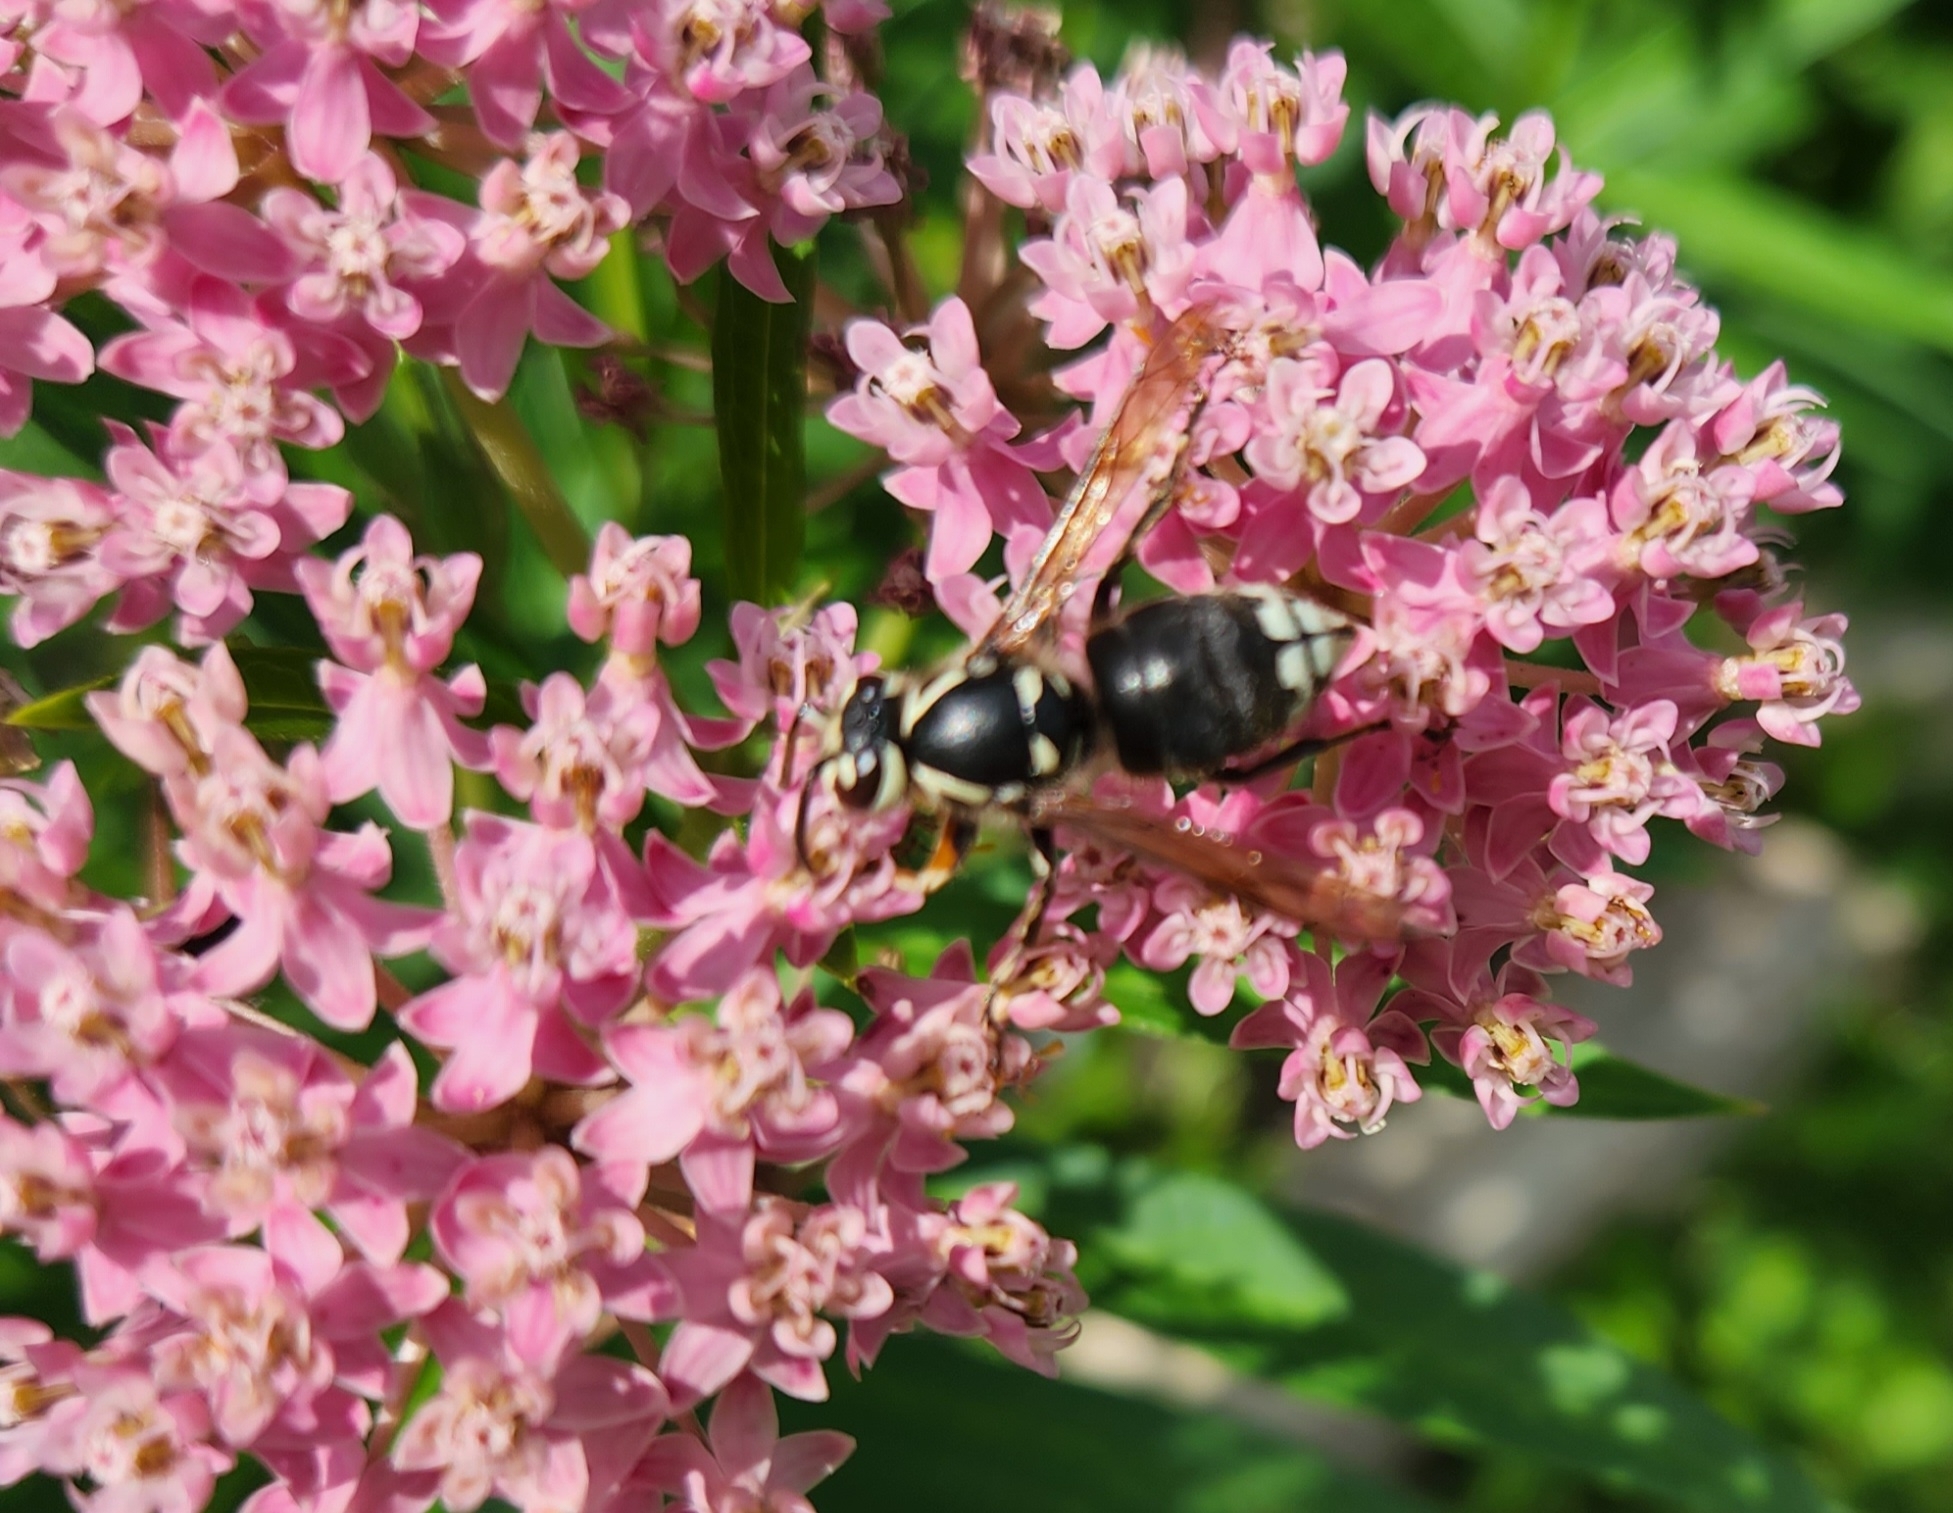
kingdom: Animalia
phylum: Arthropoda
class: Insecta
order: Hymenoptera
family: Vespidae
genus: Dolichovespula
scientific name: Dolichovespula maculata
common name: Bald-faced hornet
